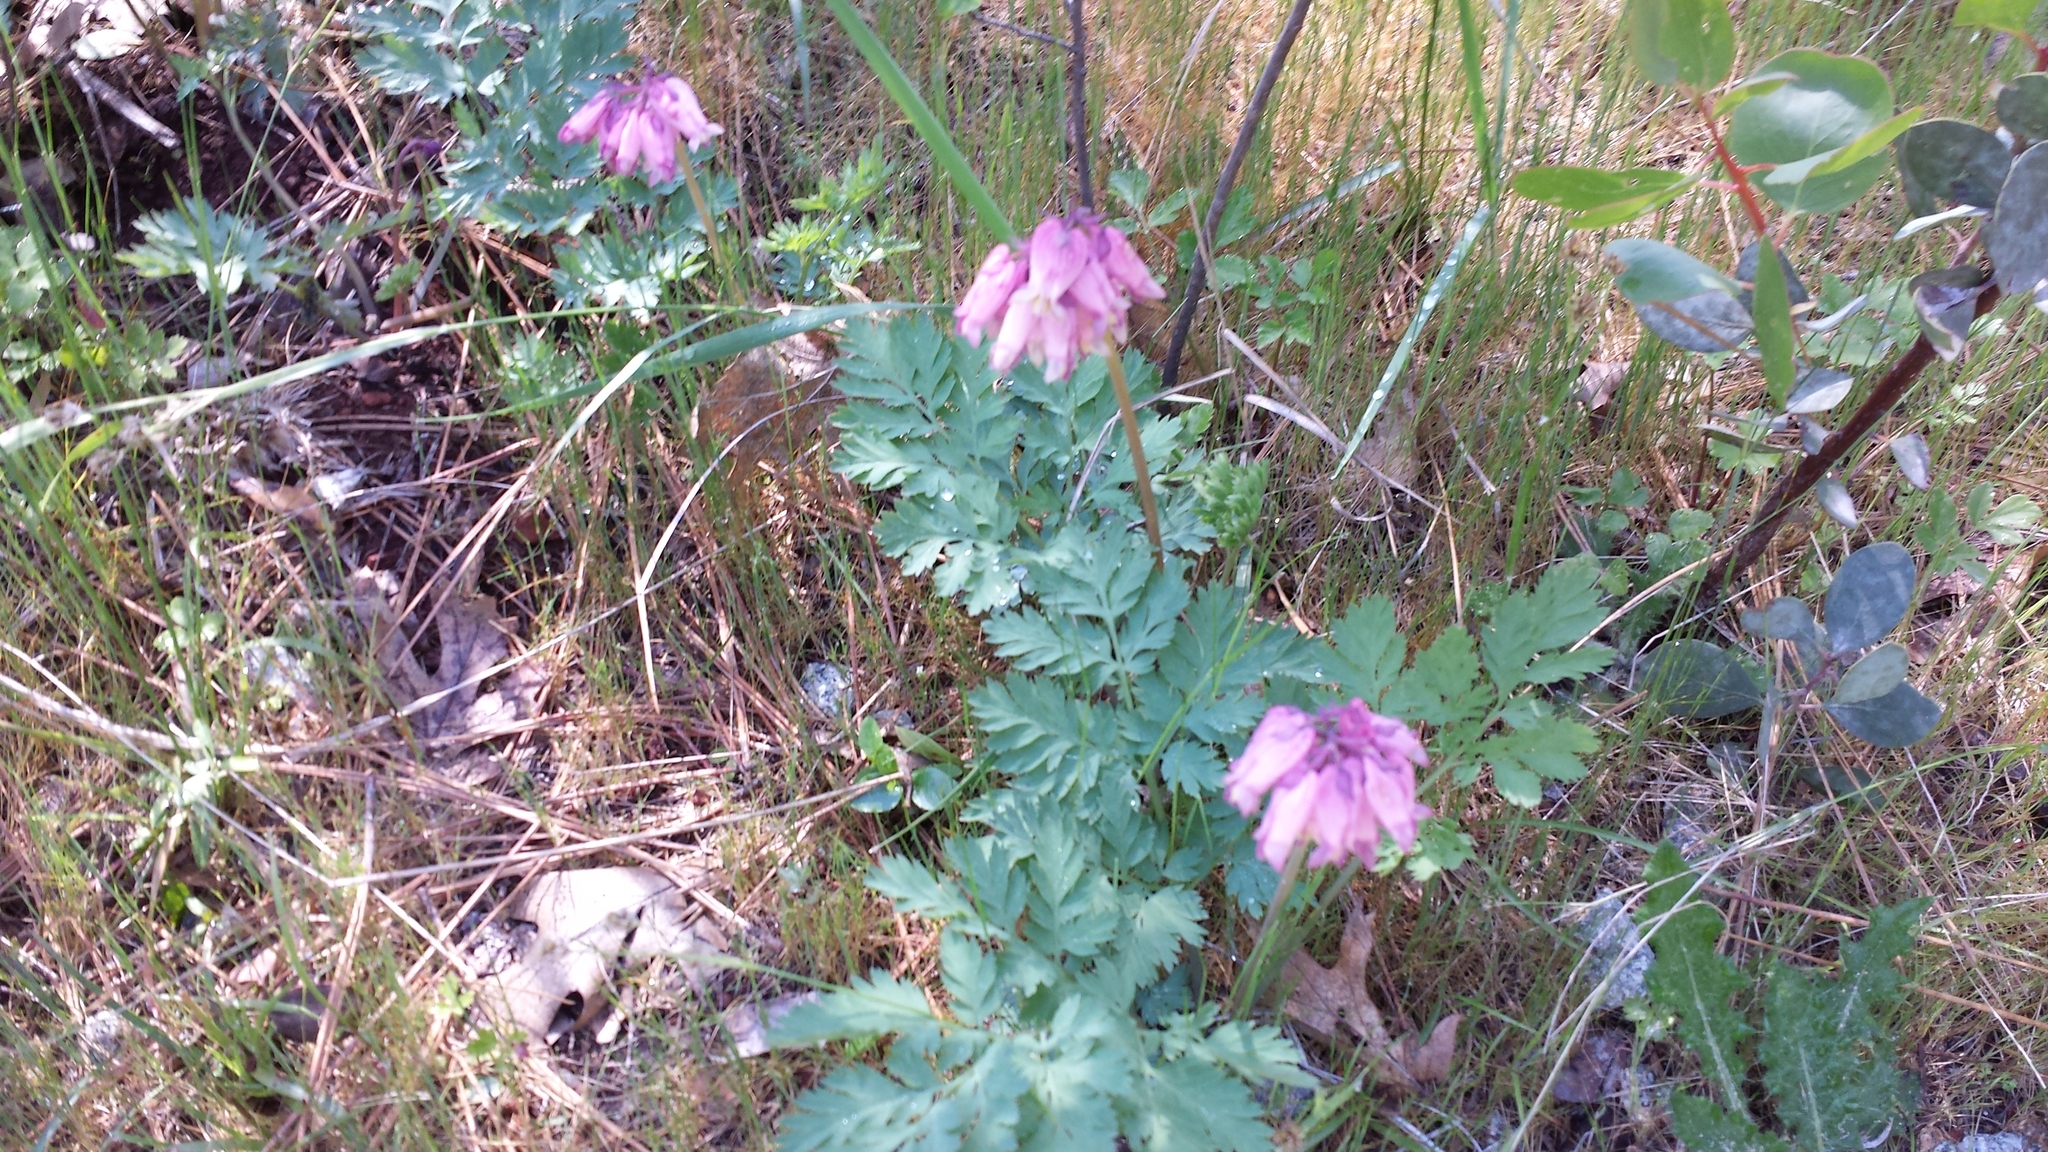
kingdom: Plantae
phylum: Tracheophyta
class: Magnoliopsida
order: Ranunculales
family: Papaveraceae
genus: Dicentra
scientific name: Dicentra formosa
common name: Bleeding-heart
